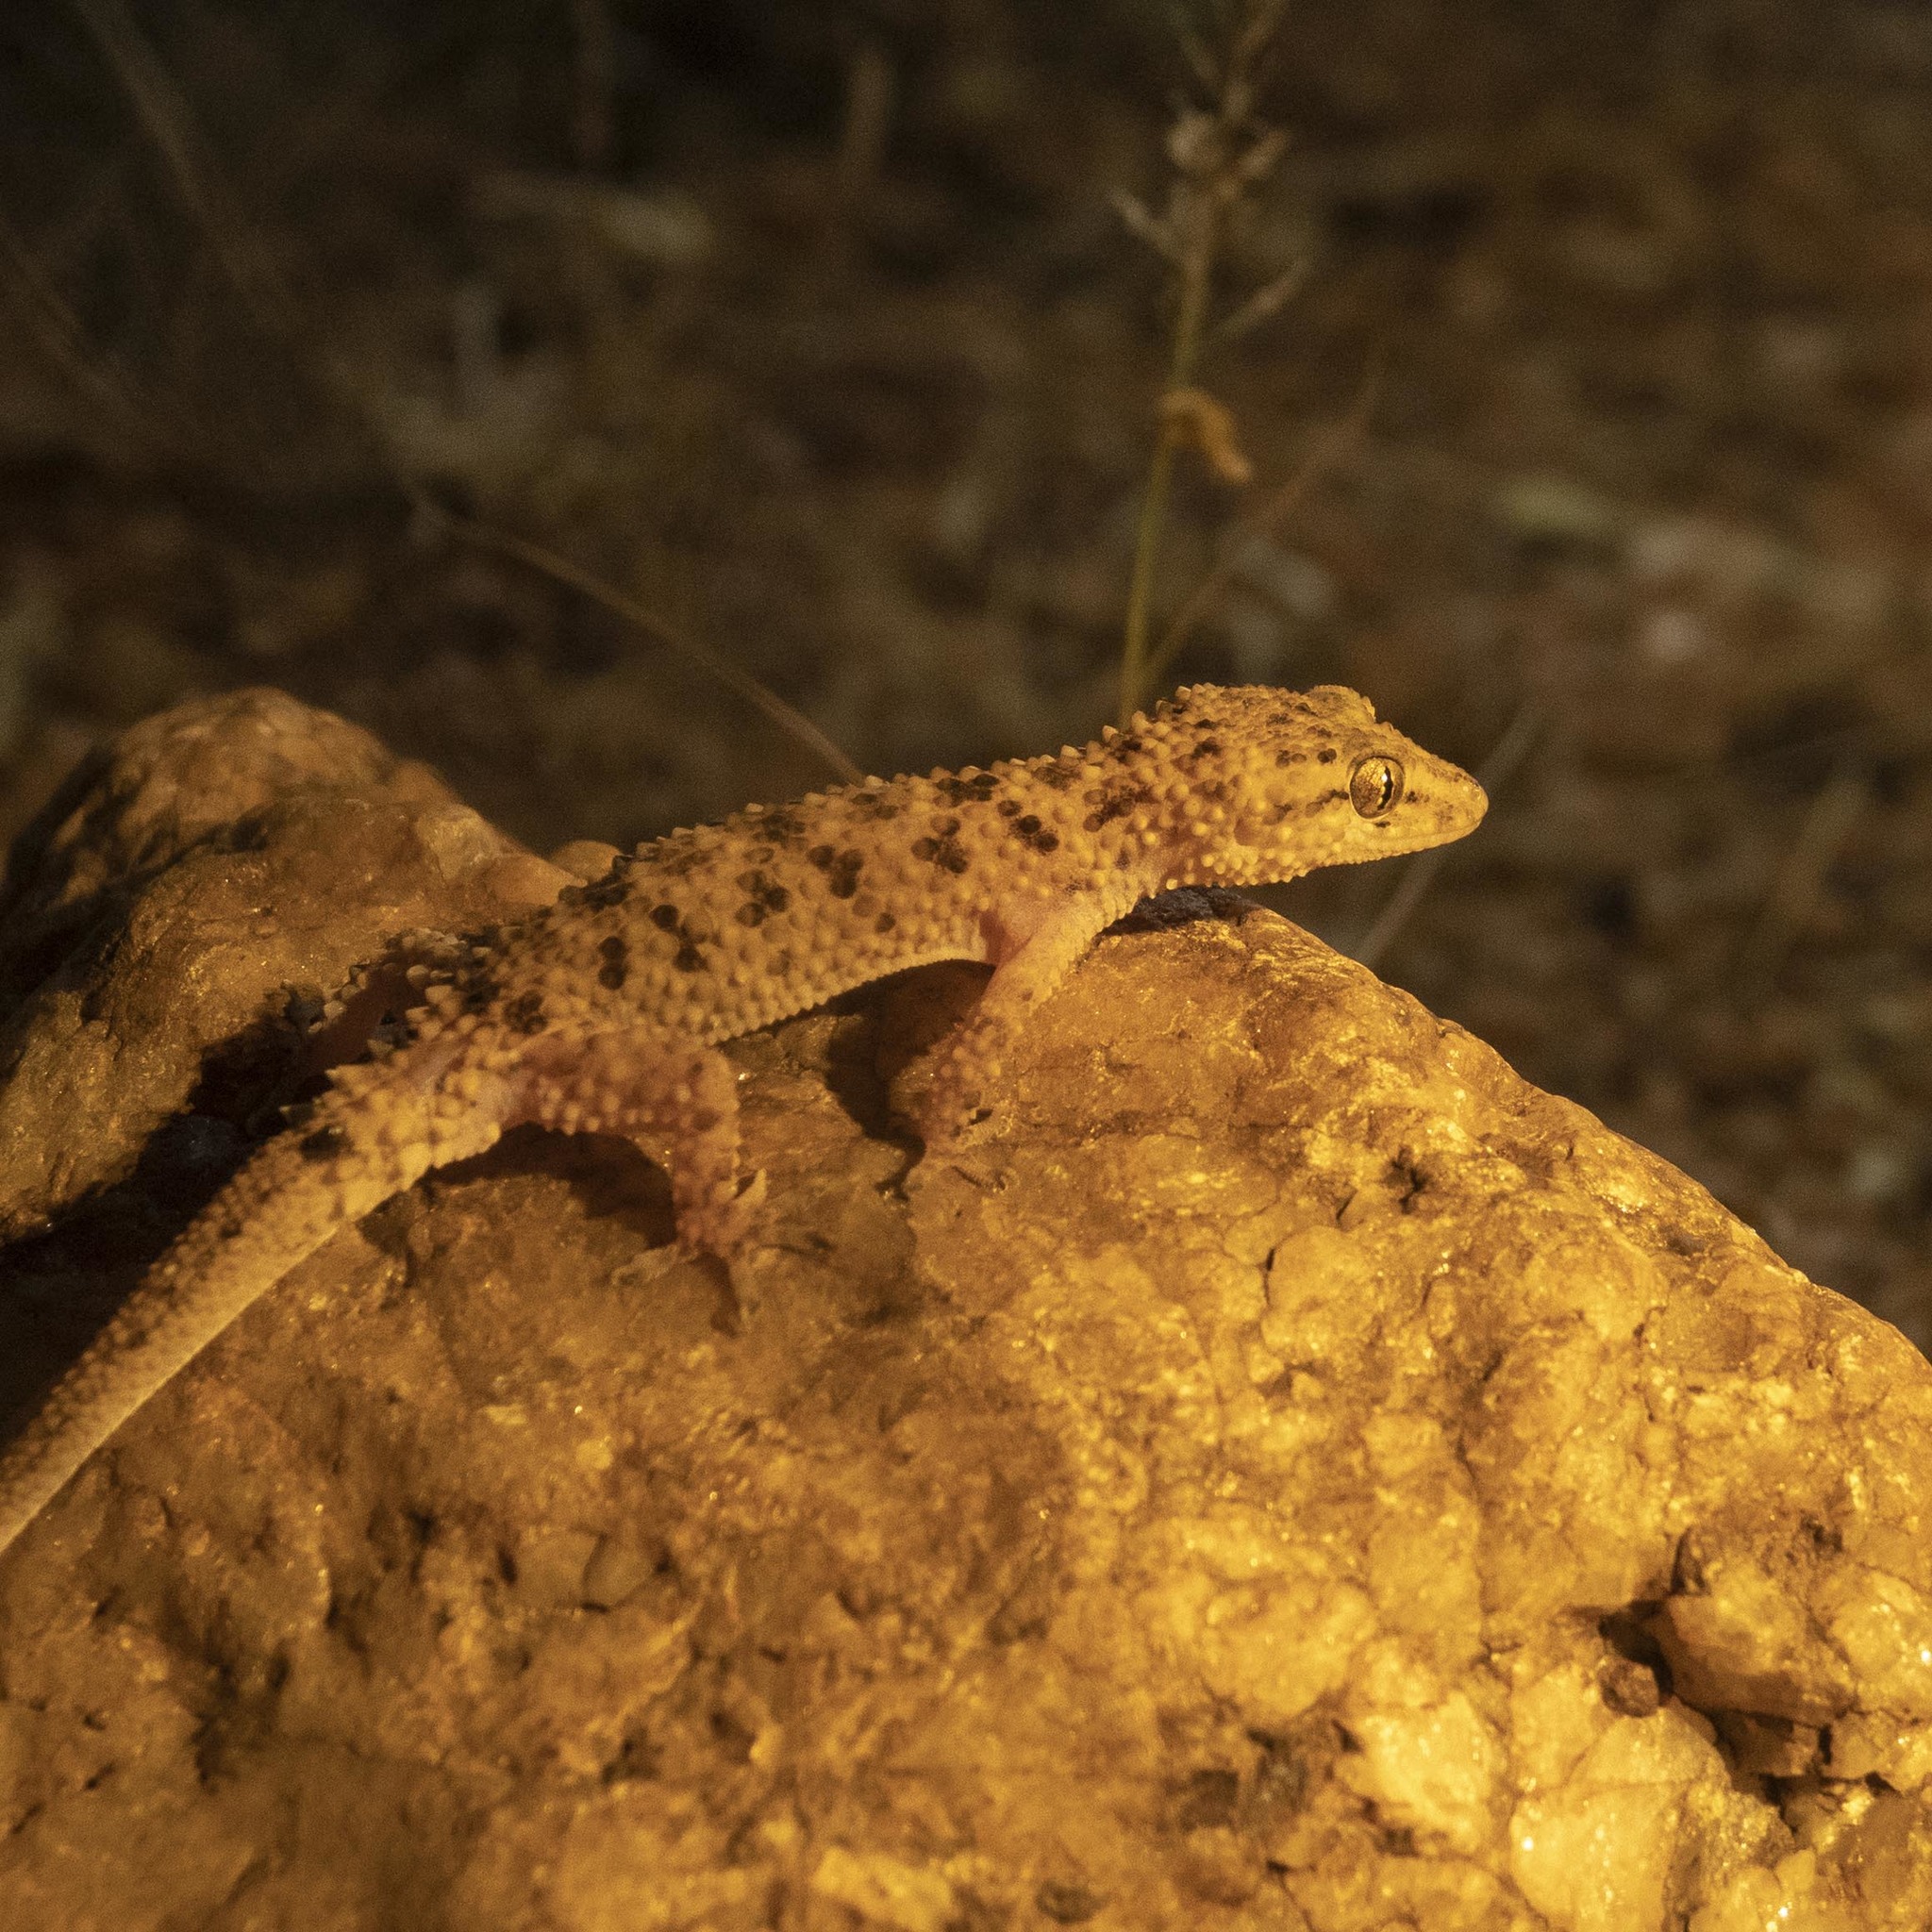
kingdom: Animalia
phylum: Chordata
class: Squamata
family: Gekkonidae
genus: Hemidactylus
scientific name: Hemidactylus parvimaculatus
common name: Spotted house gecko
